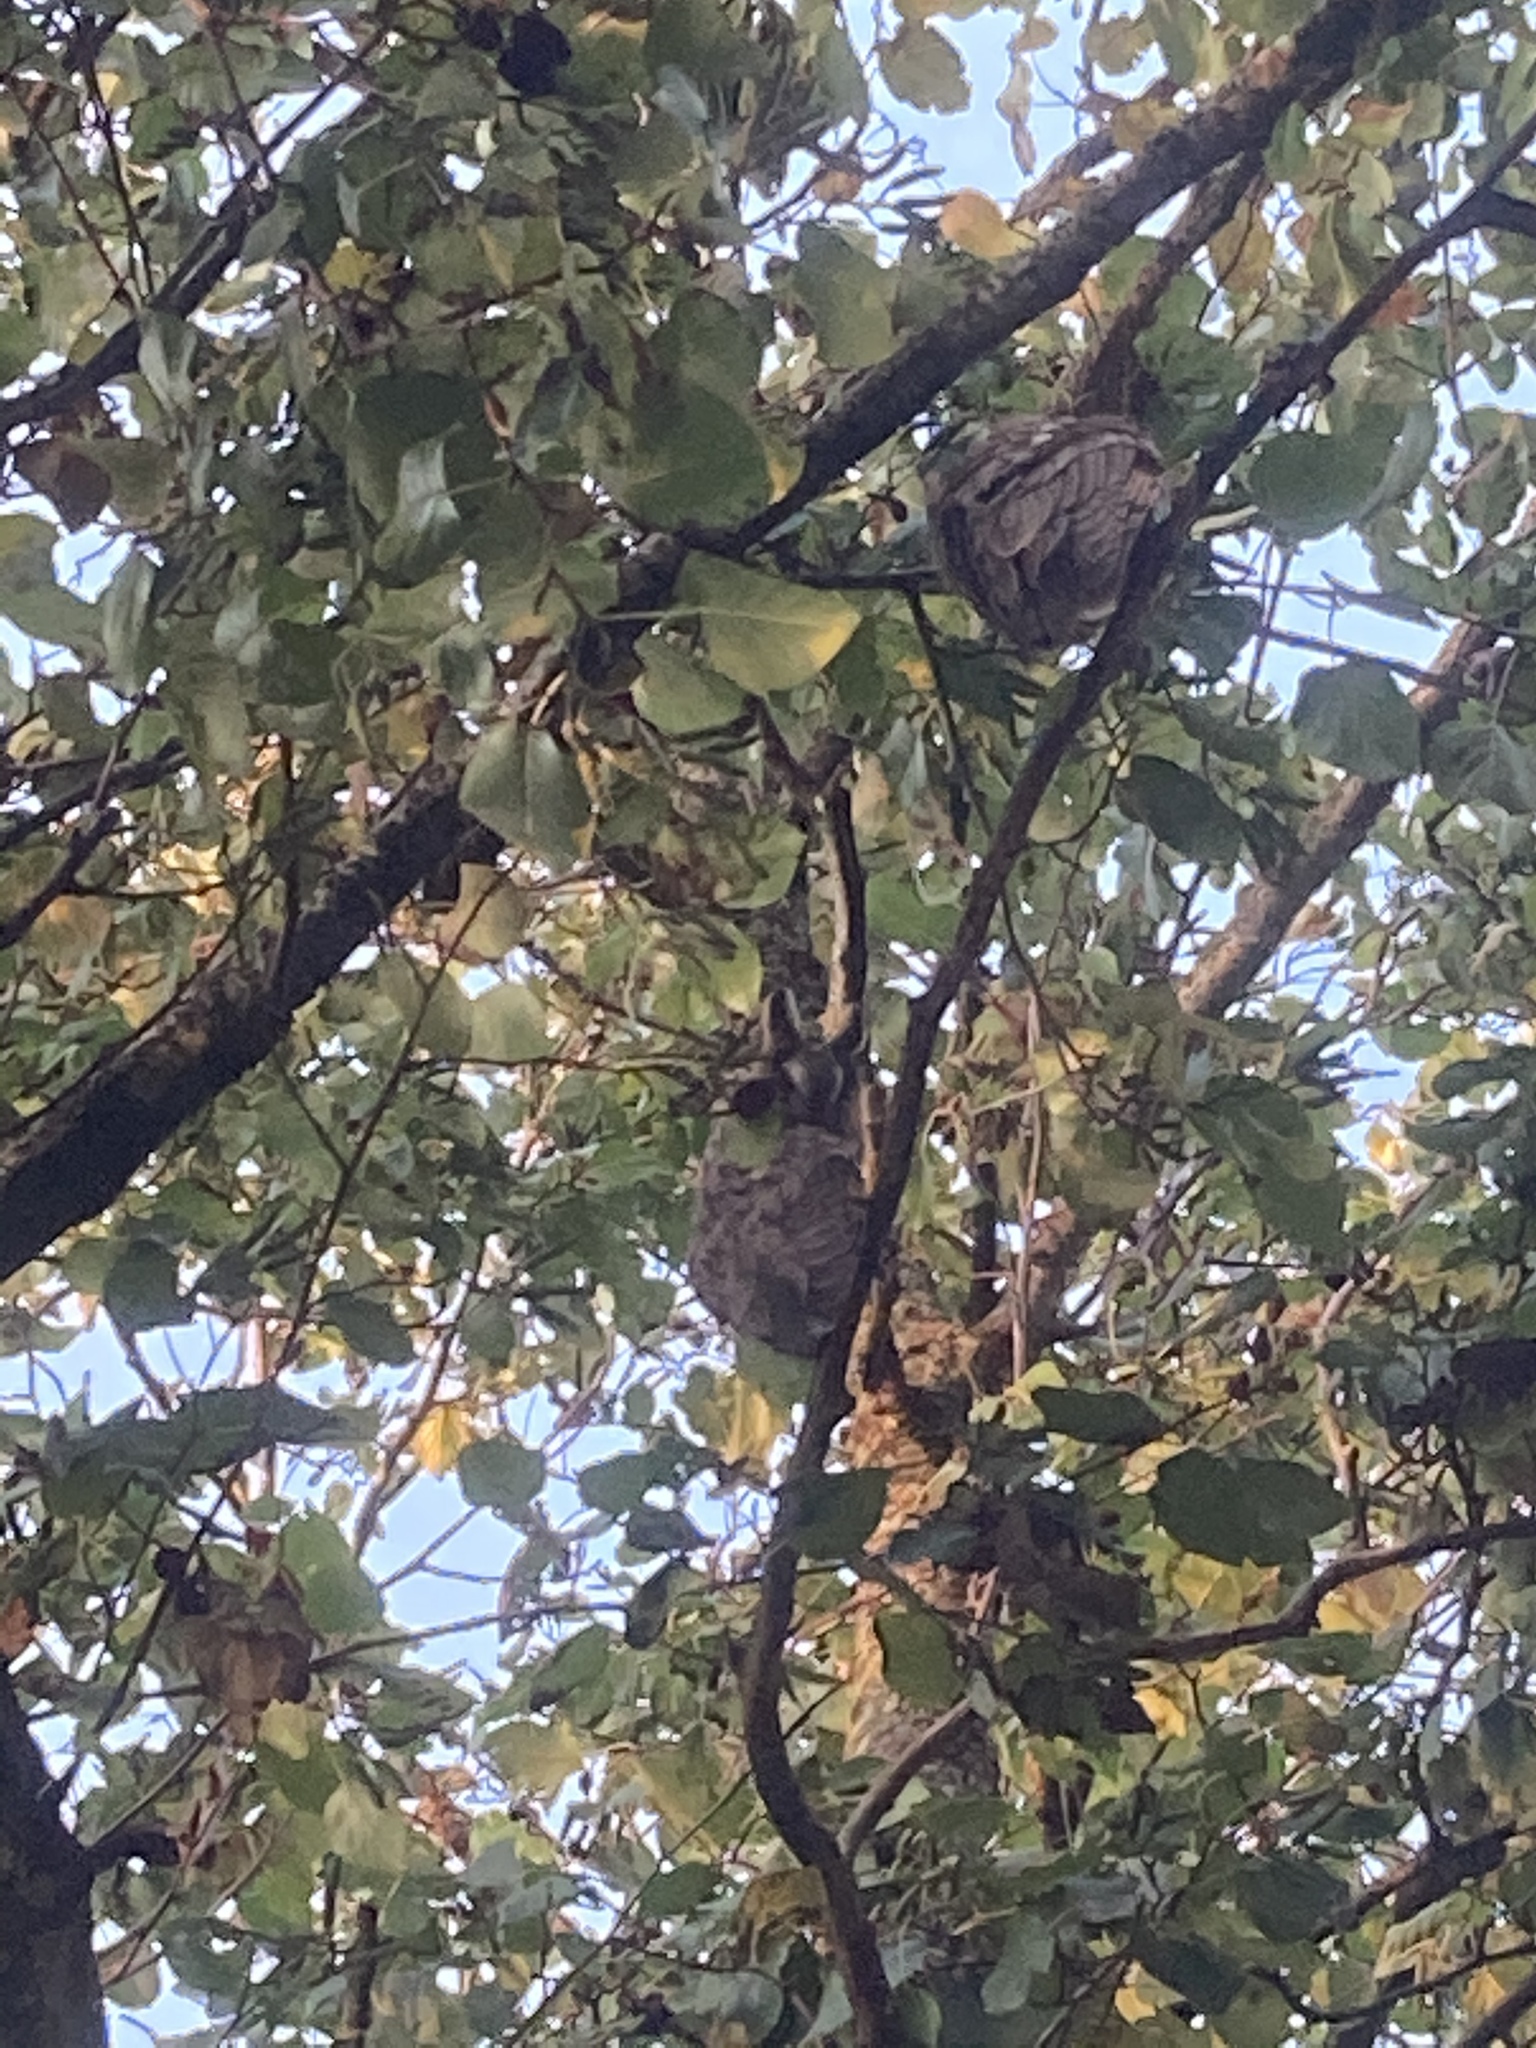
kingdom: Animalia
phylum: Chordata
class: Aves
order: Strigiformes
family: Strigidae
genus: Asio
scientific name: Asio otus
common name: Long-eared owl
